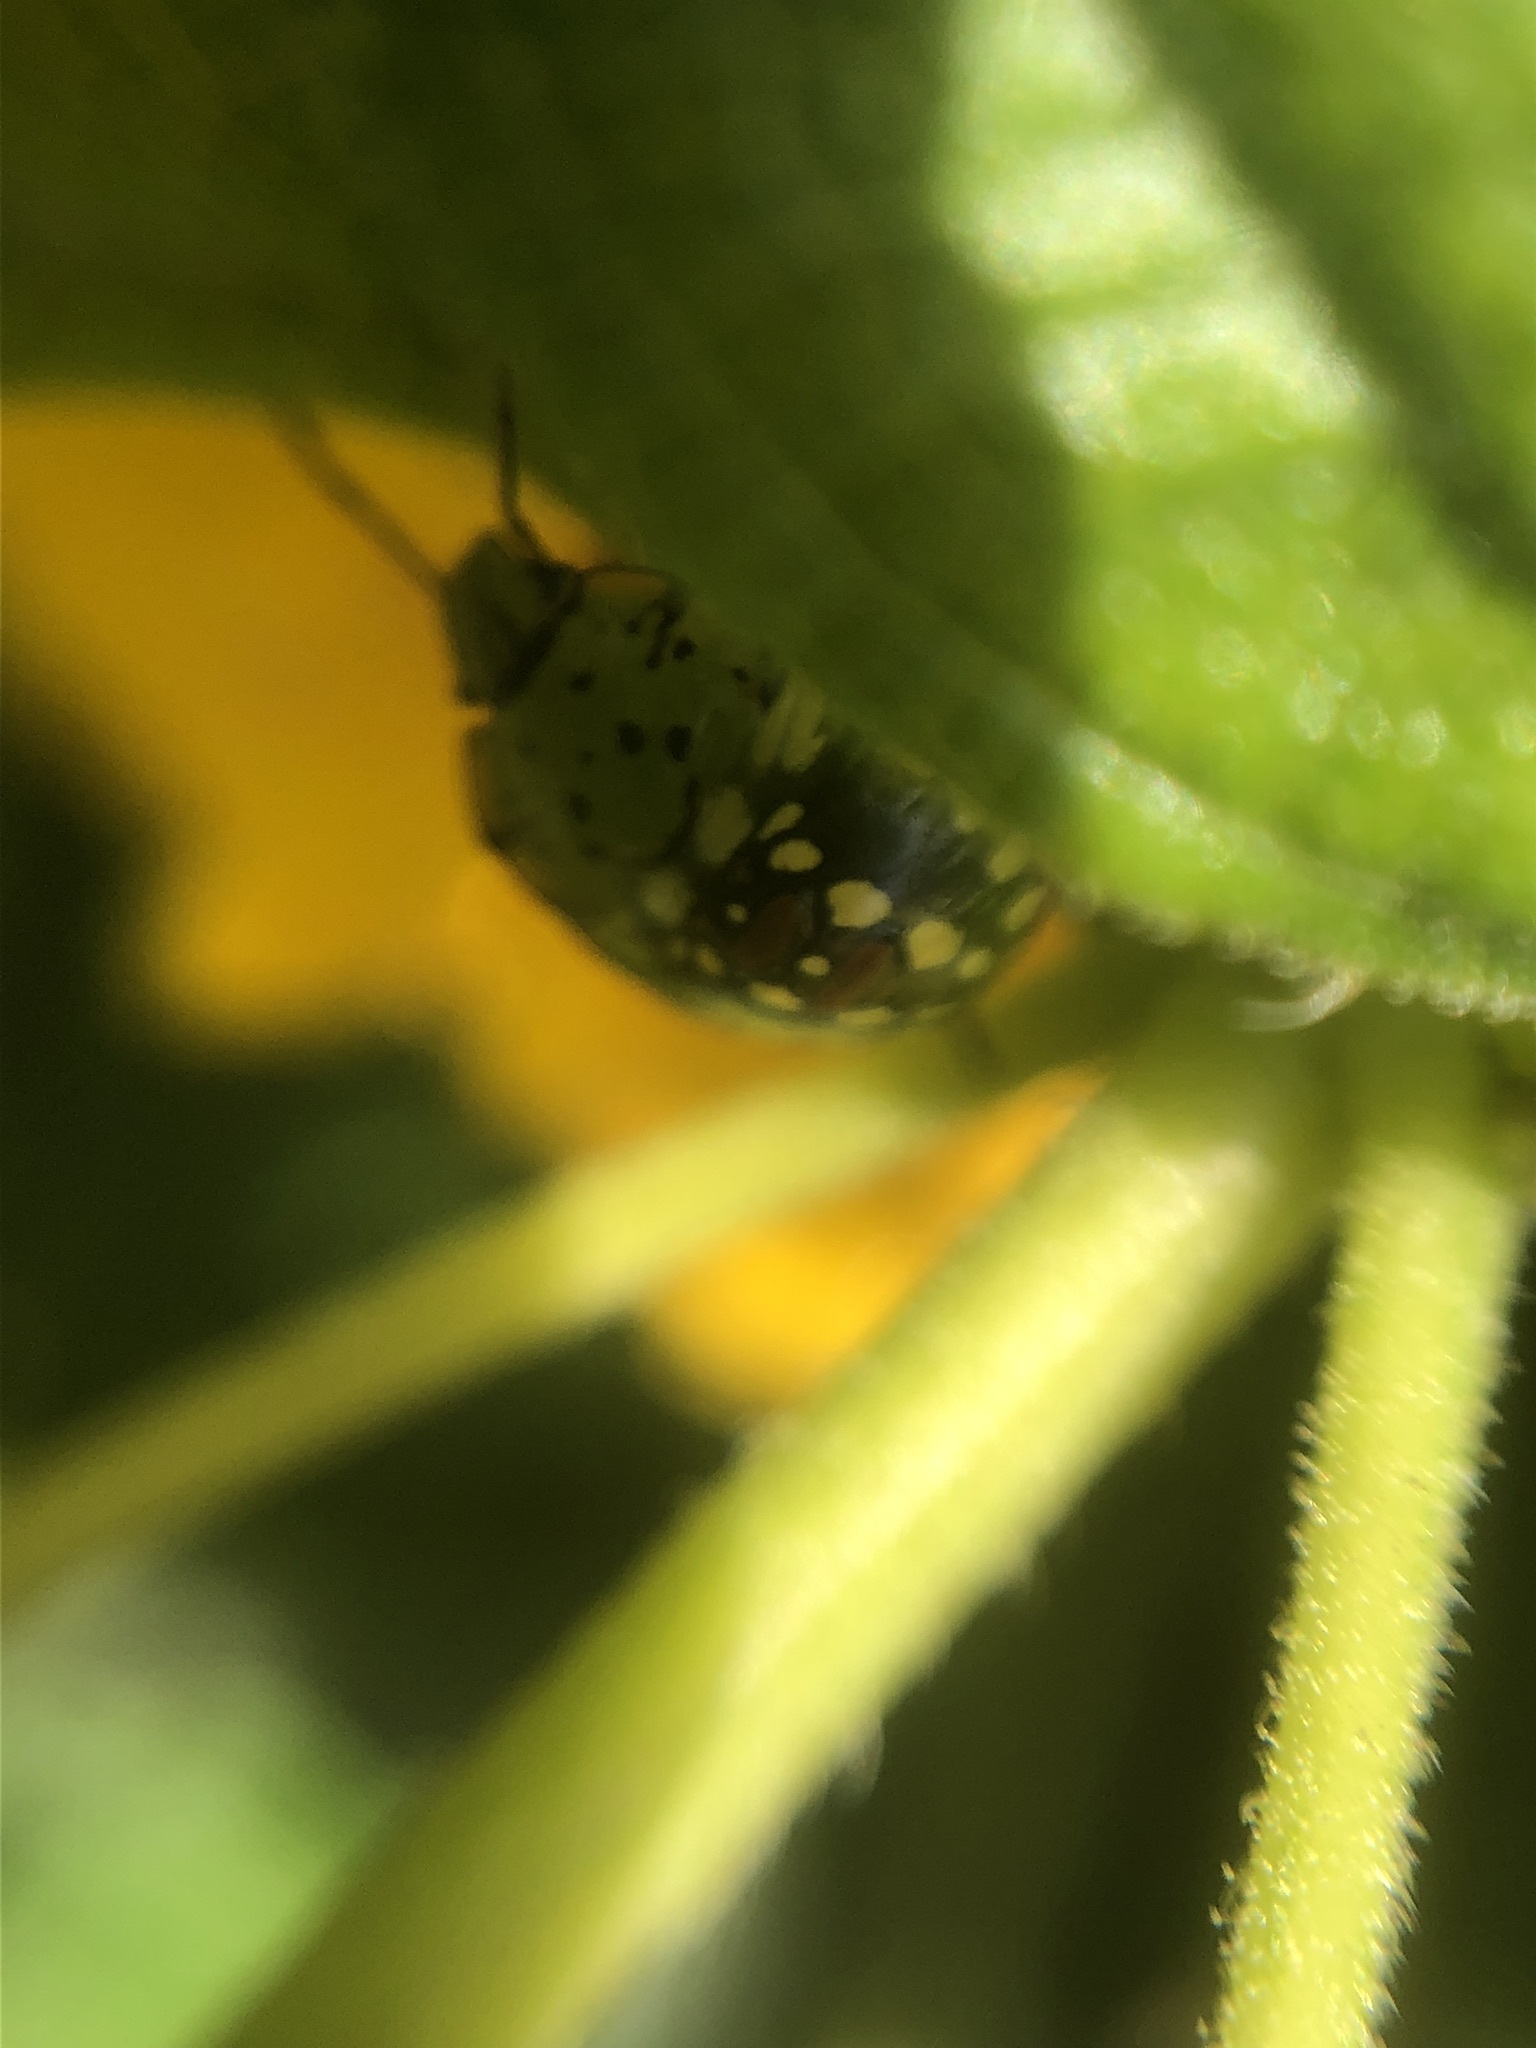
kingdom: Animalia
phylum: Arthropoda
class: Insecta
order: Hemiptera
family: Pentatomidae
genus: Nezara
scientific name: Nezara viridula
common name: Southern green stink bug
